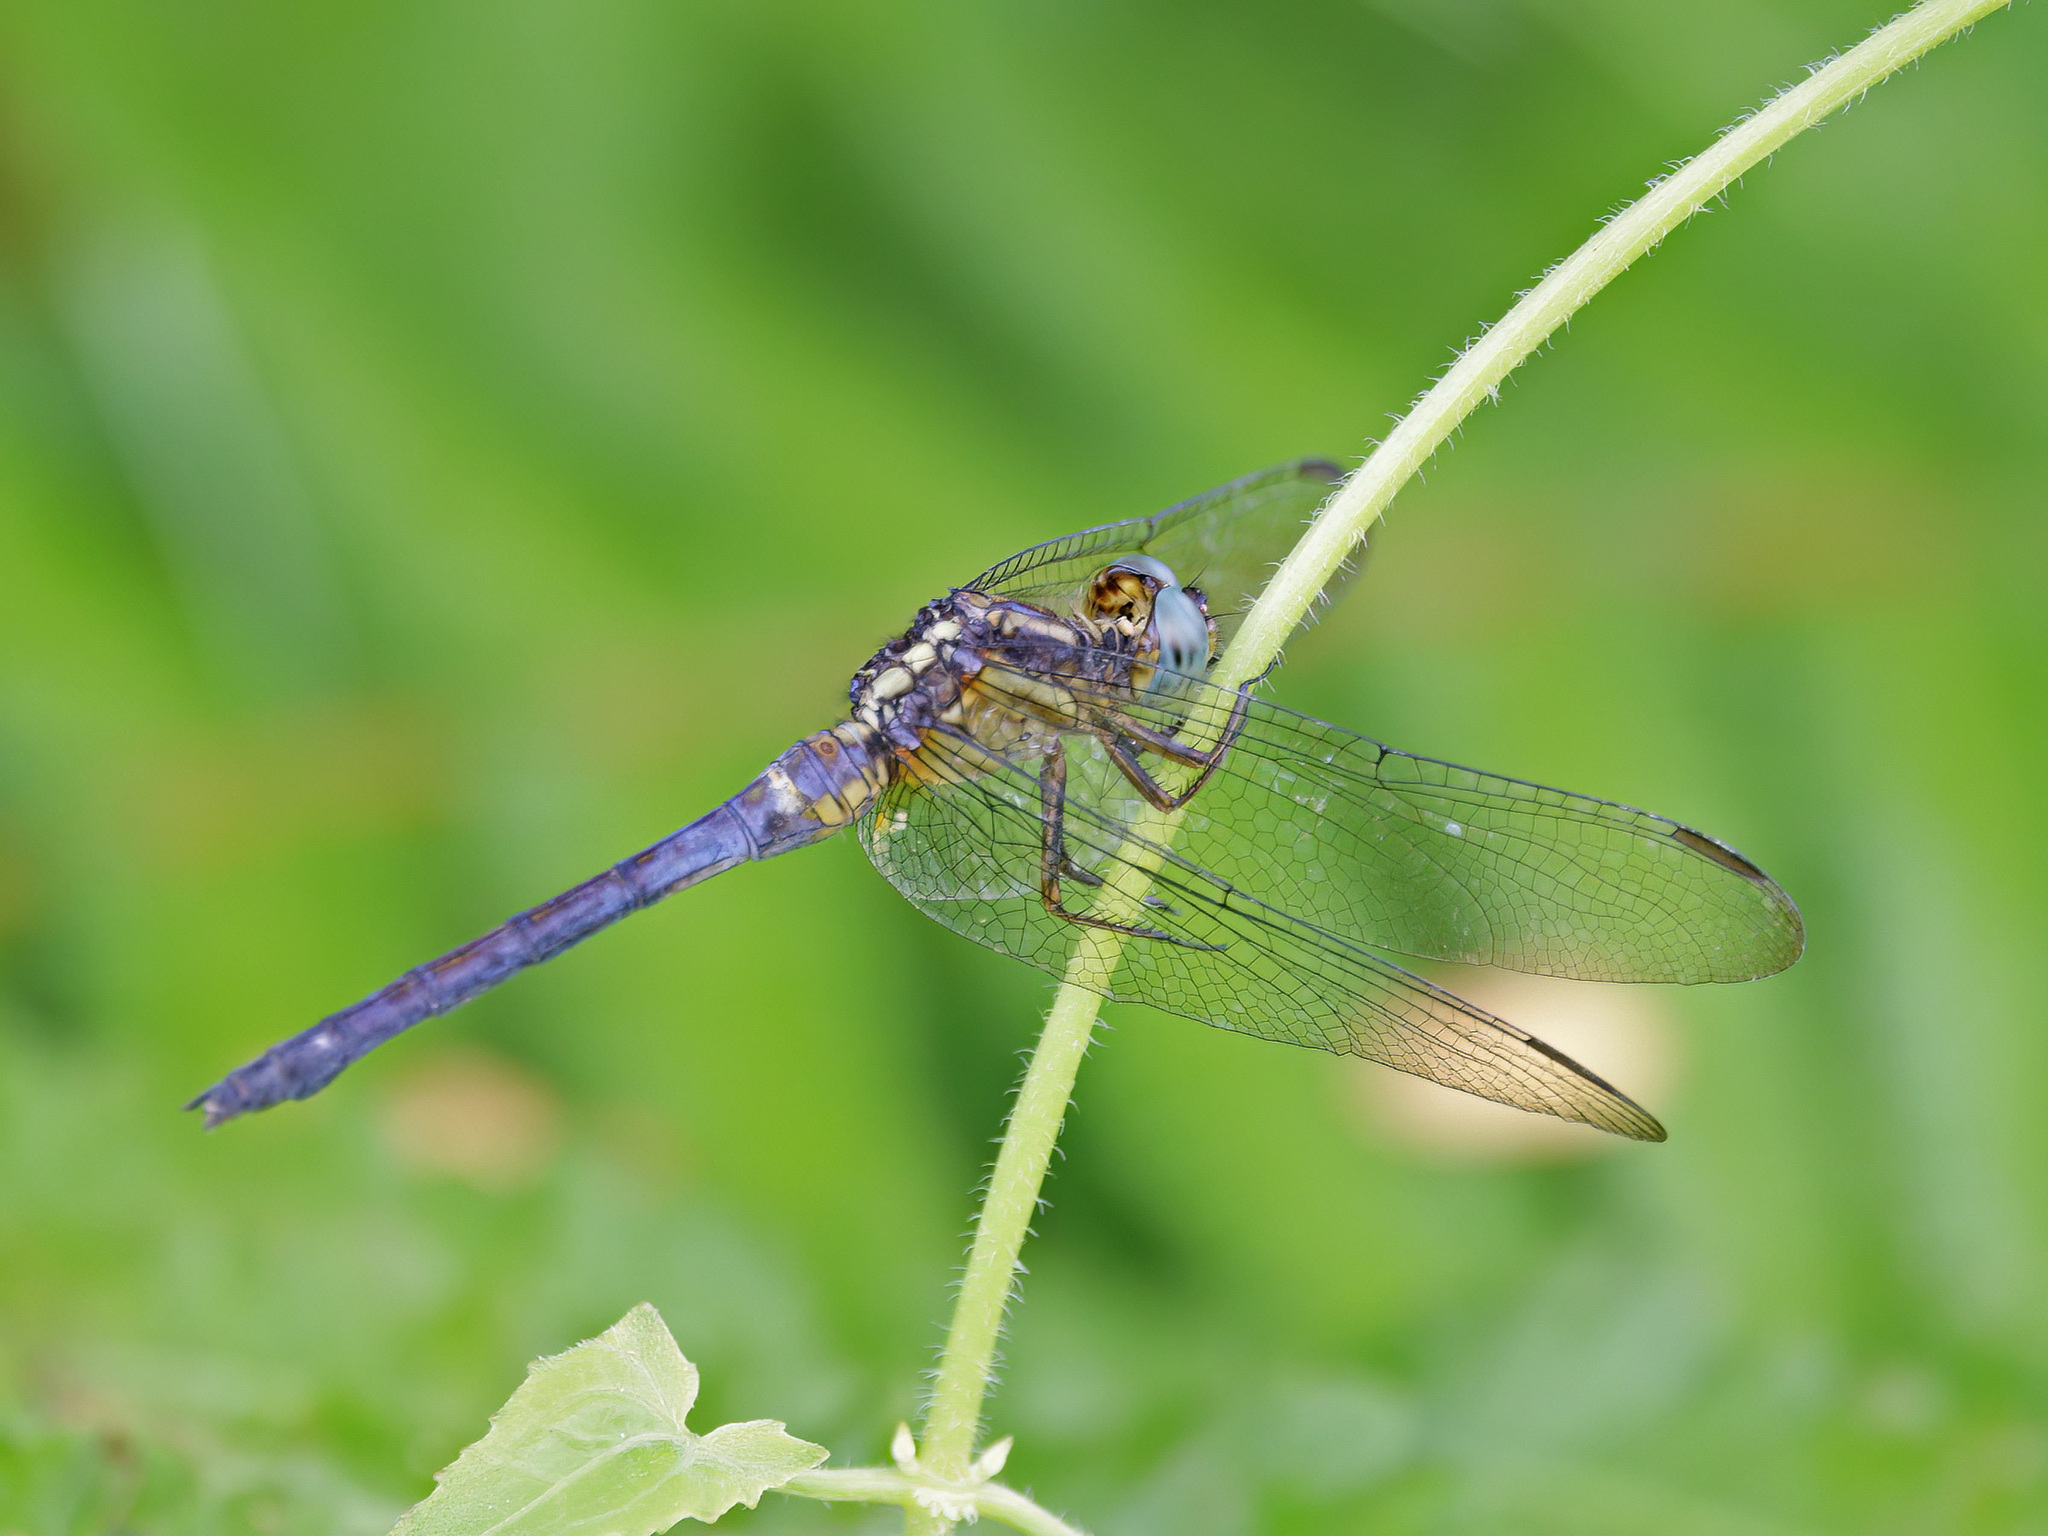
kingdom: Animalia
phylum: Arthropoda
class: Insecta
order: Odonata
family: Libellulidae
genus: Orthetrum
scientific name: Orthetrum luzonicum
